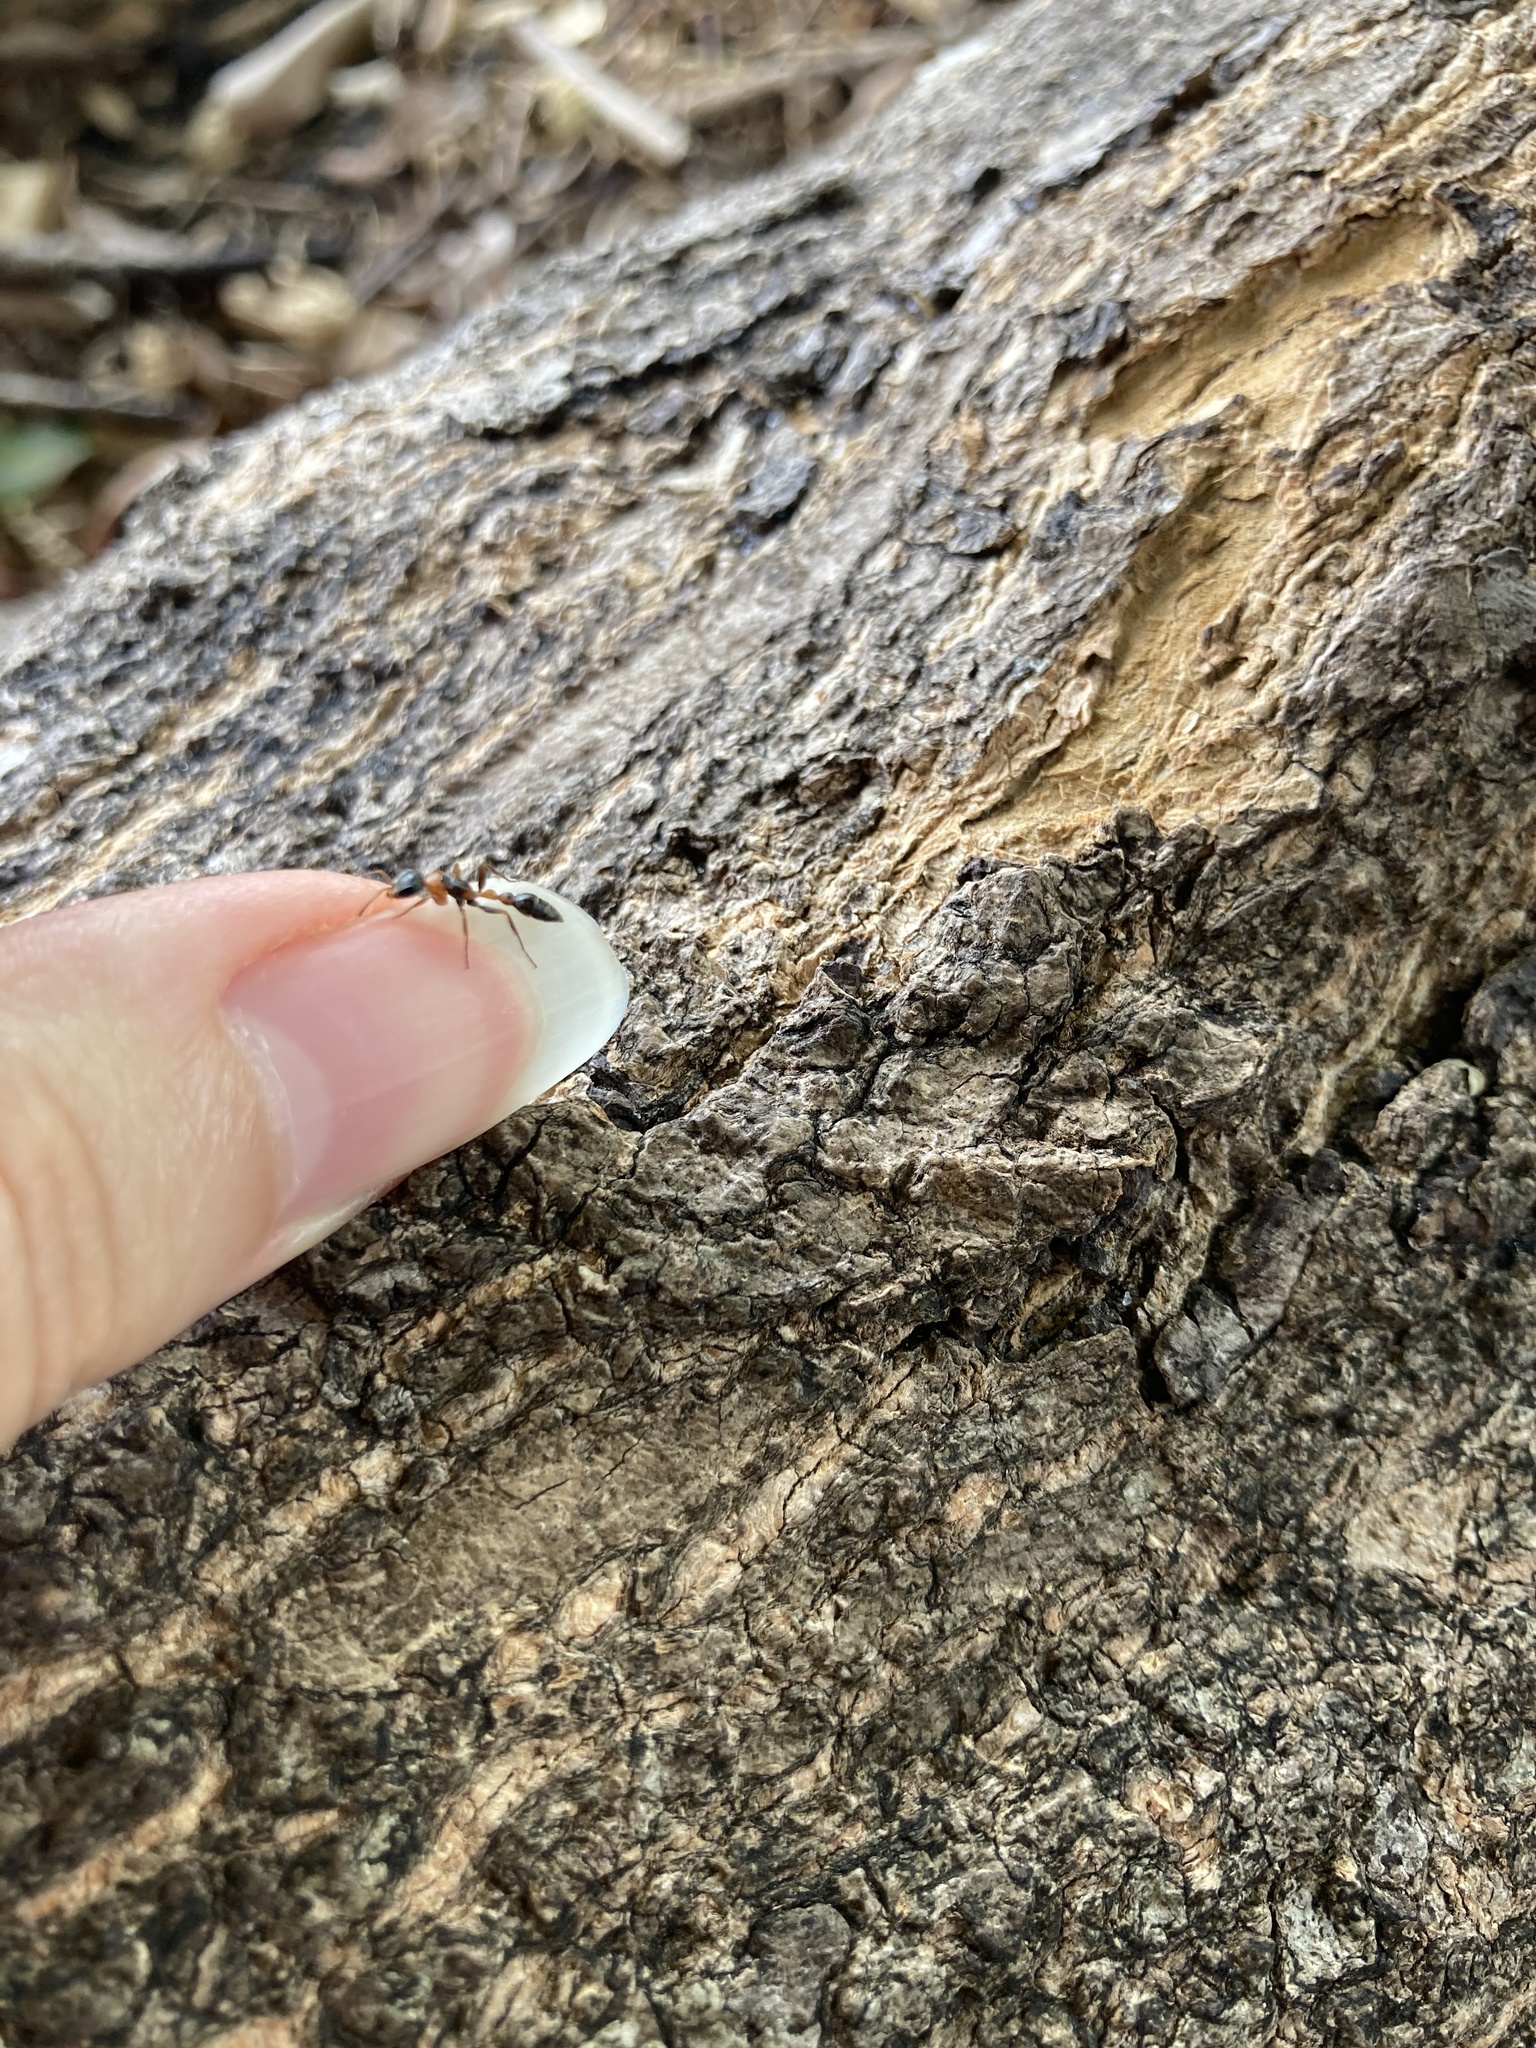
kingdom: Animalia
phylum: Arthropoda
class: Insecta
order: Hymenoptera
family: Formicidae
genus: Pseudomyrmex
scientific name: Pseudomyrmex gracilis
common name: Graceful twig ant
